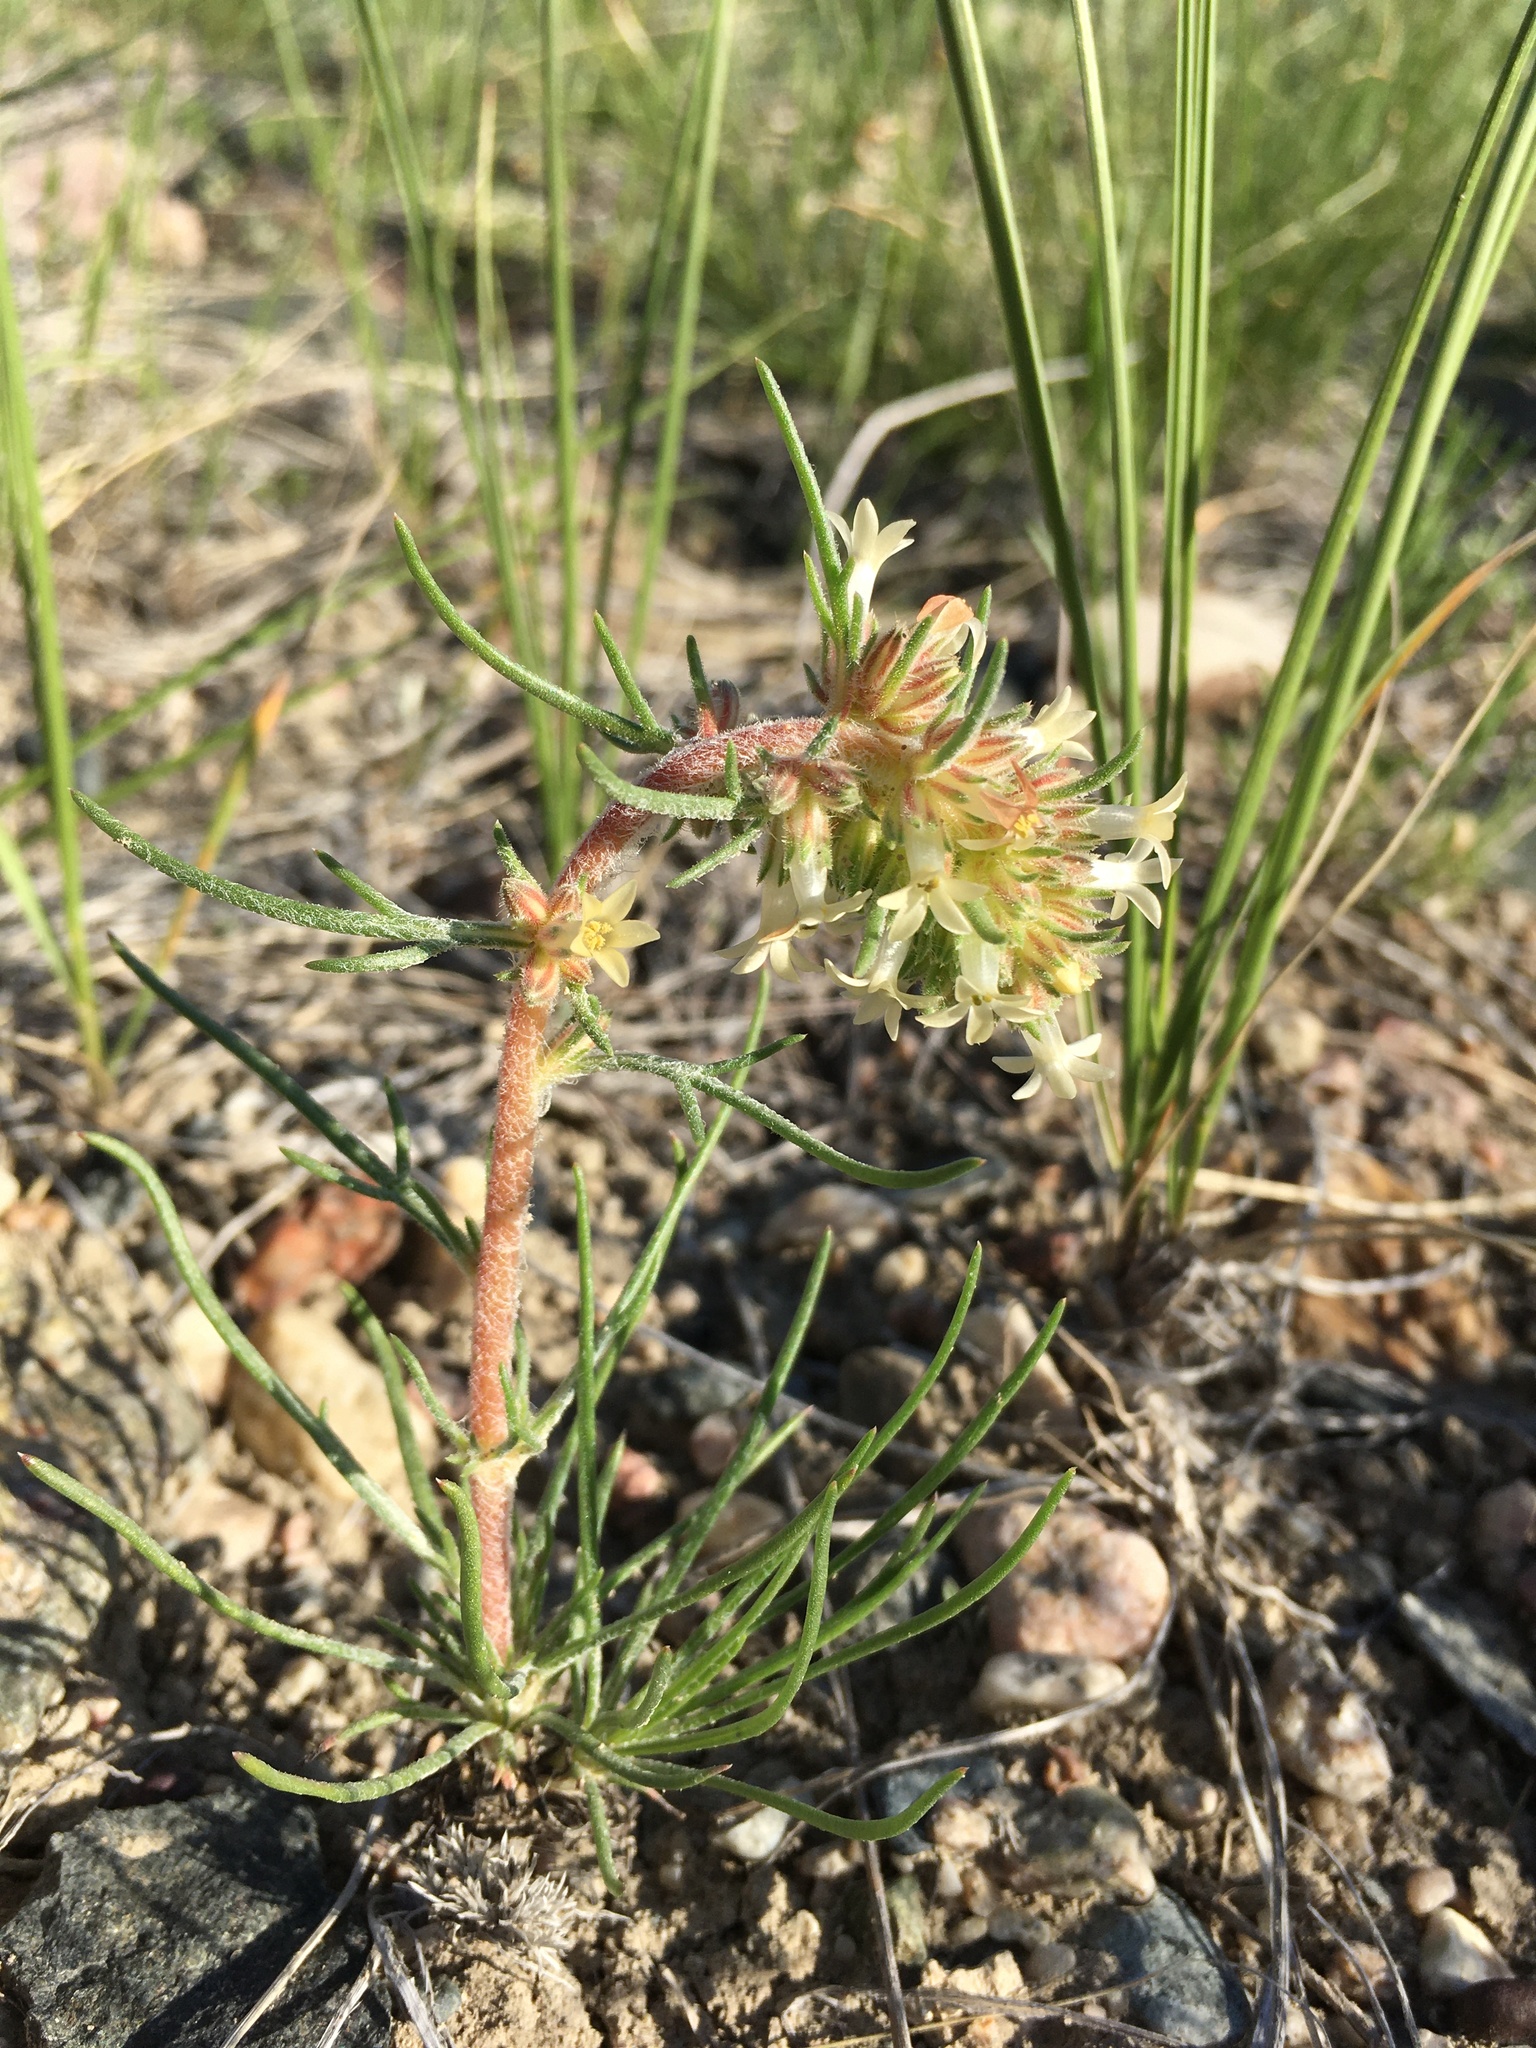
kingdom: Plantae
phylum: Tracheophyta
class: Magnoliopsida
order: Ericales
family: Polemoniaceae
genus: Ipomopsis
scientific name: Ipomopsis spicata
